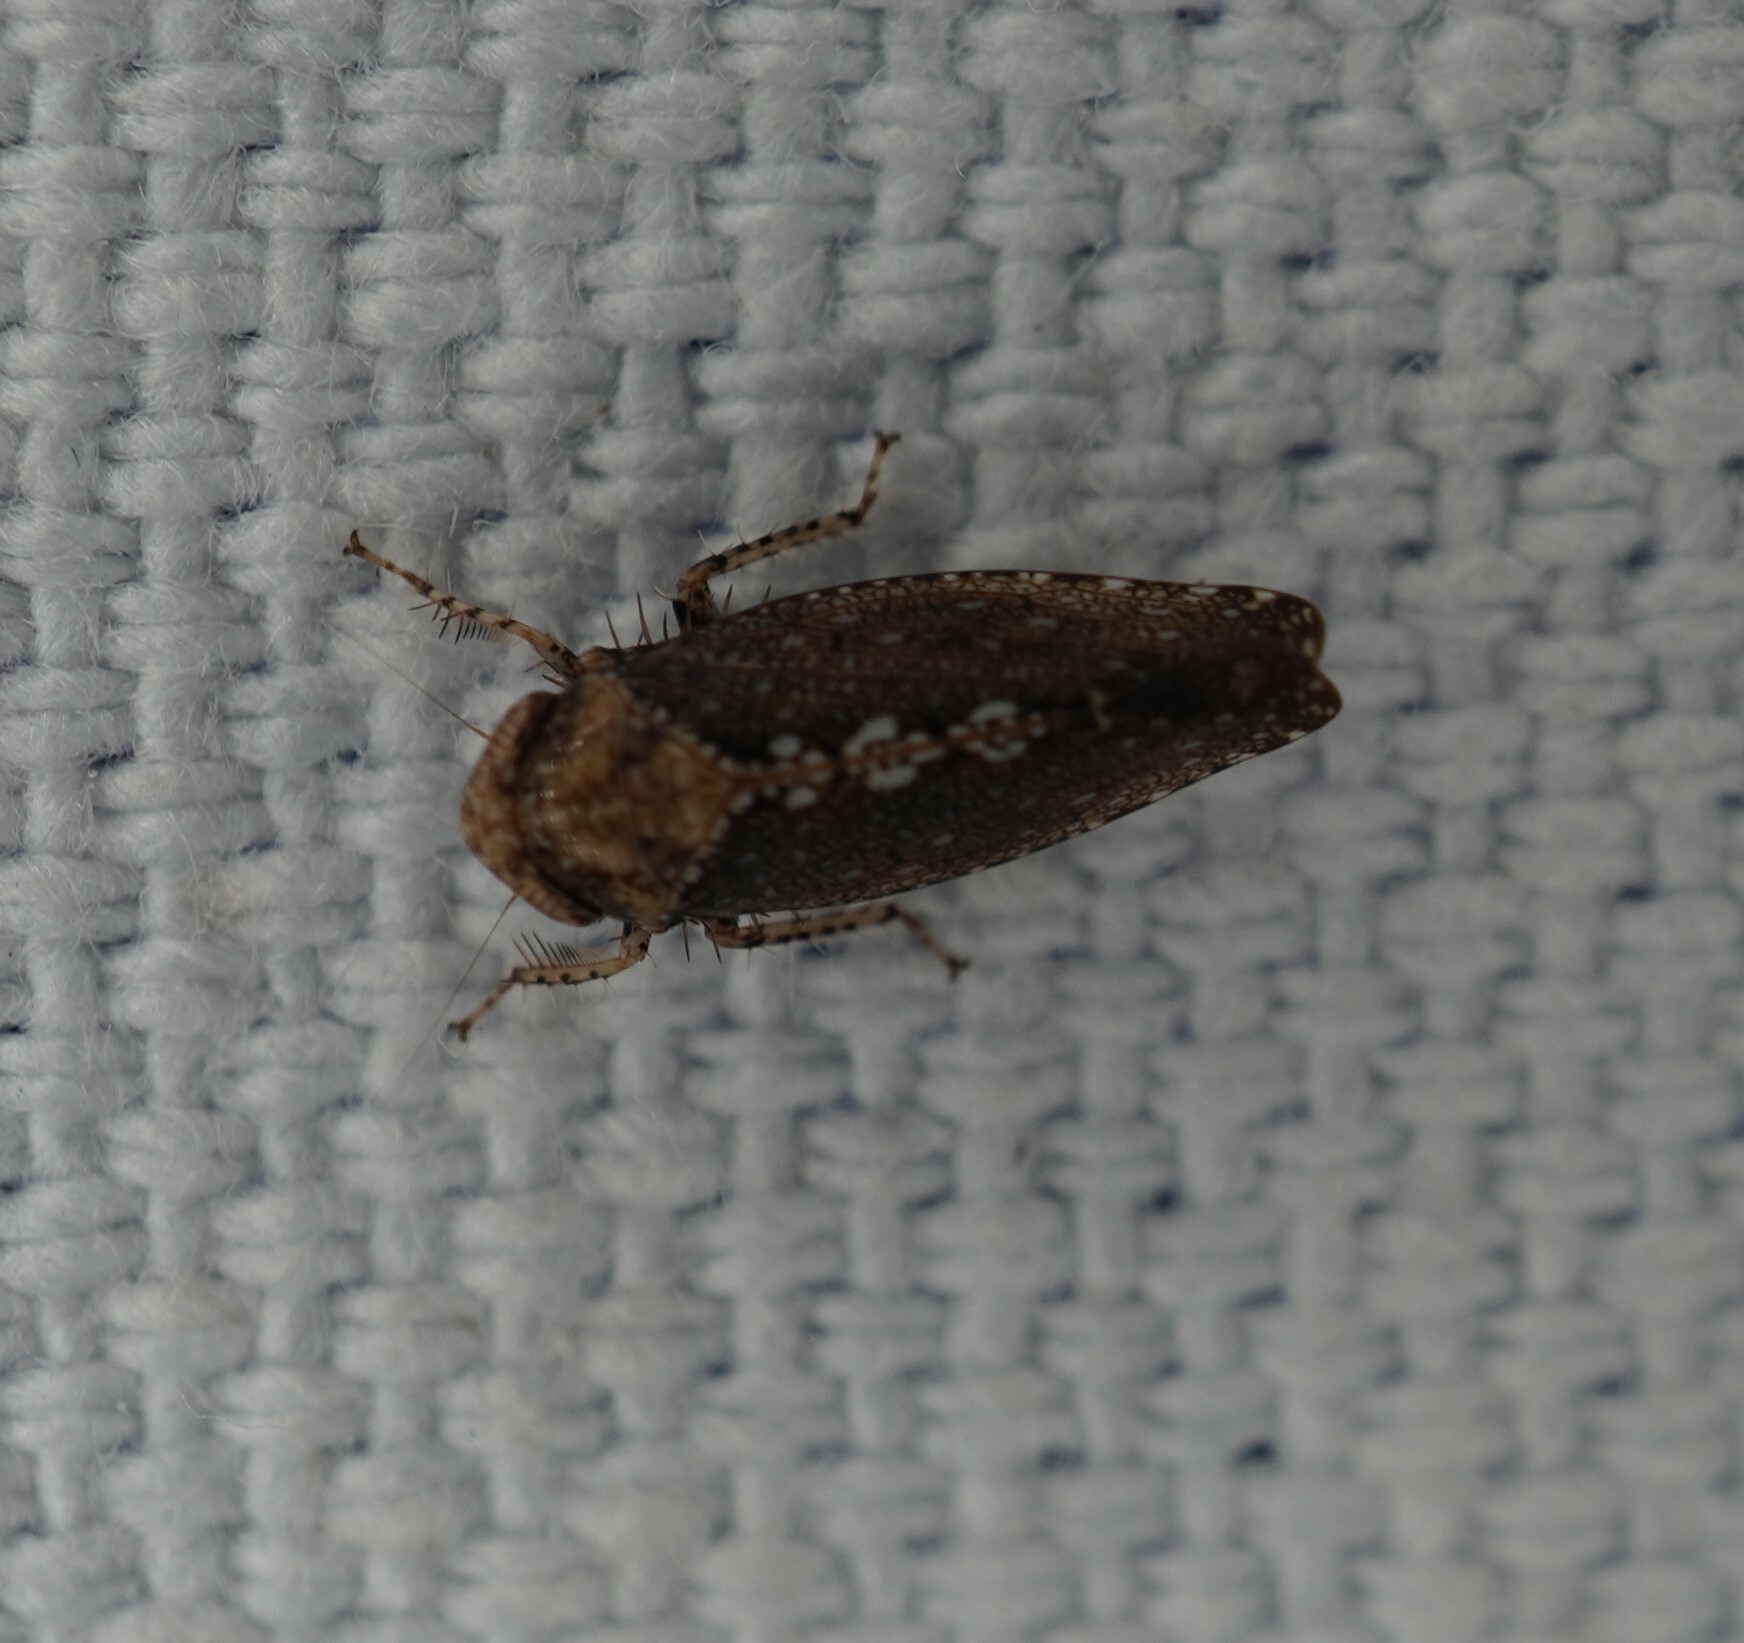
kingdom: Animalia
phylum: Arthropoda
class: Insecta
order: Hemiptera
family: Cicadellidae
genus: Excultanus
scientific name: Excultanus excultus
